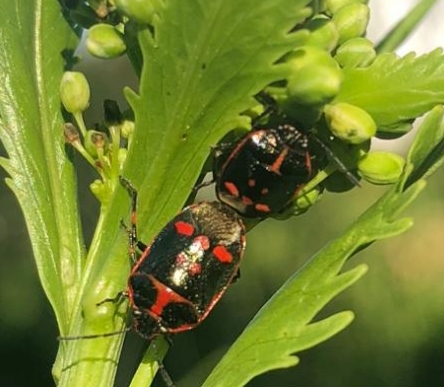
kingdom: Animalia
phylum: Arthropoda
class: Insecta
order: Hemiptera
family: Pentatomidae
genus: Eurydema
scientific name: Eurydema oleracea
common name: Cabbage bug
